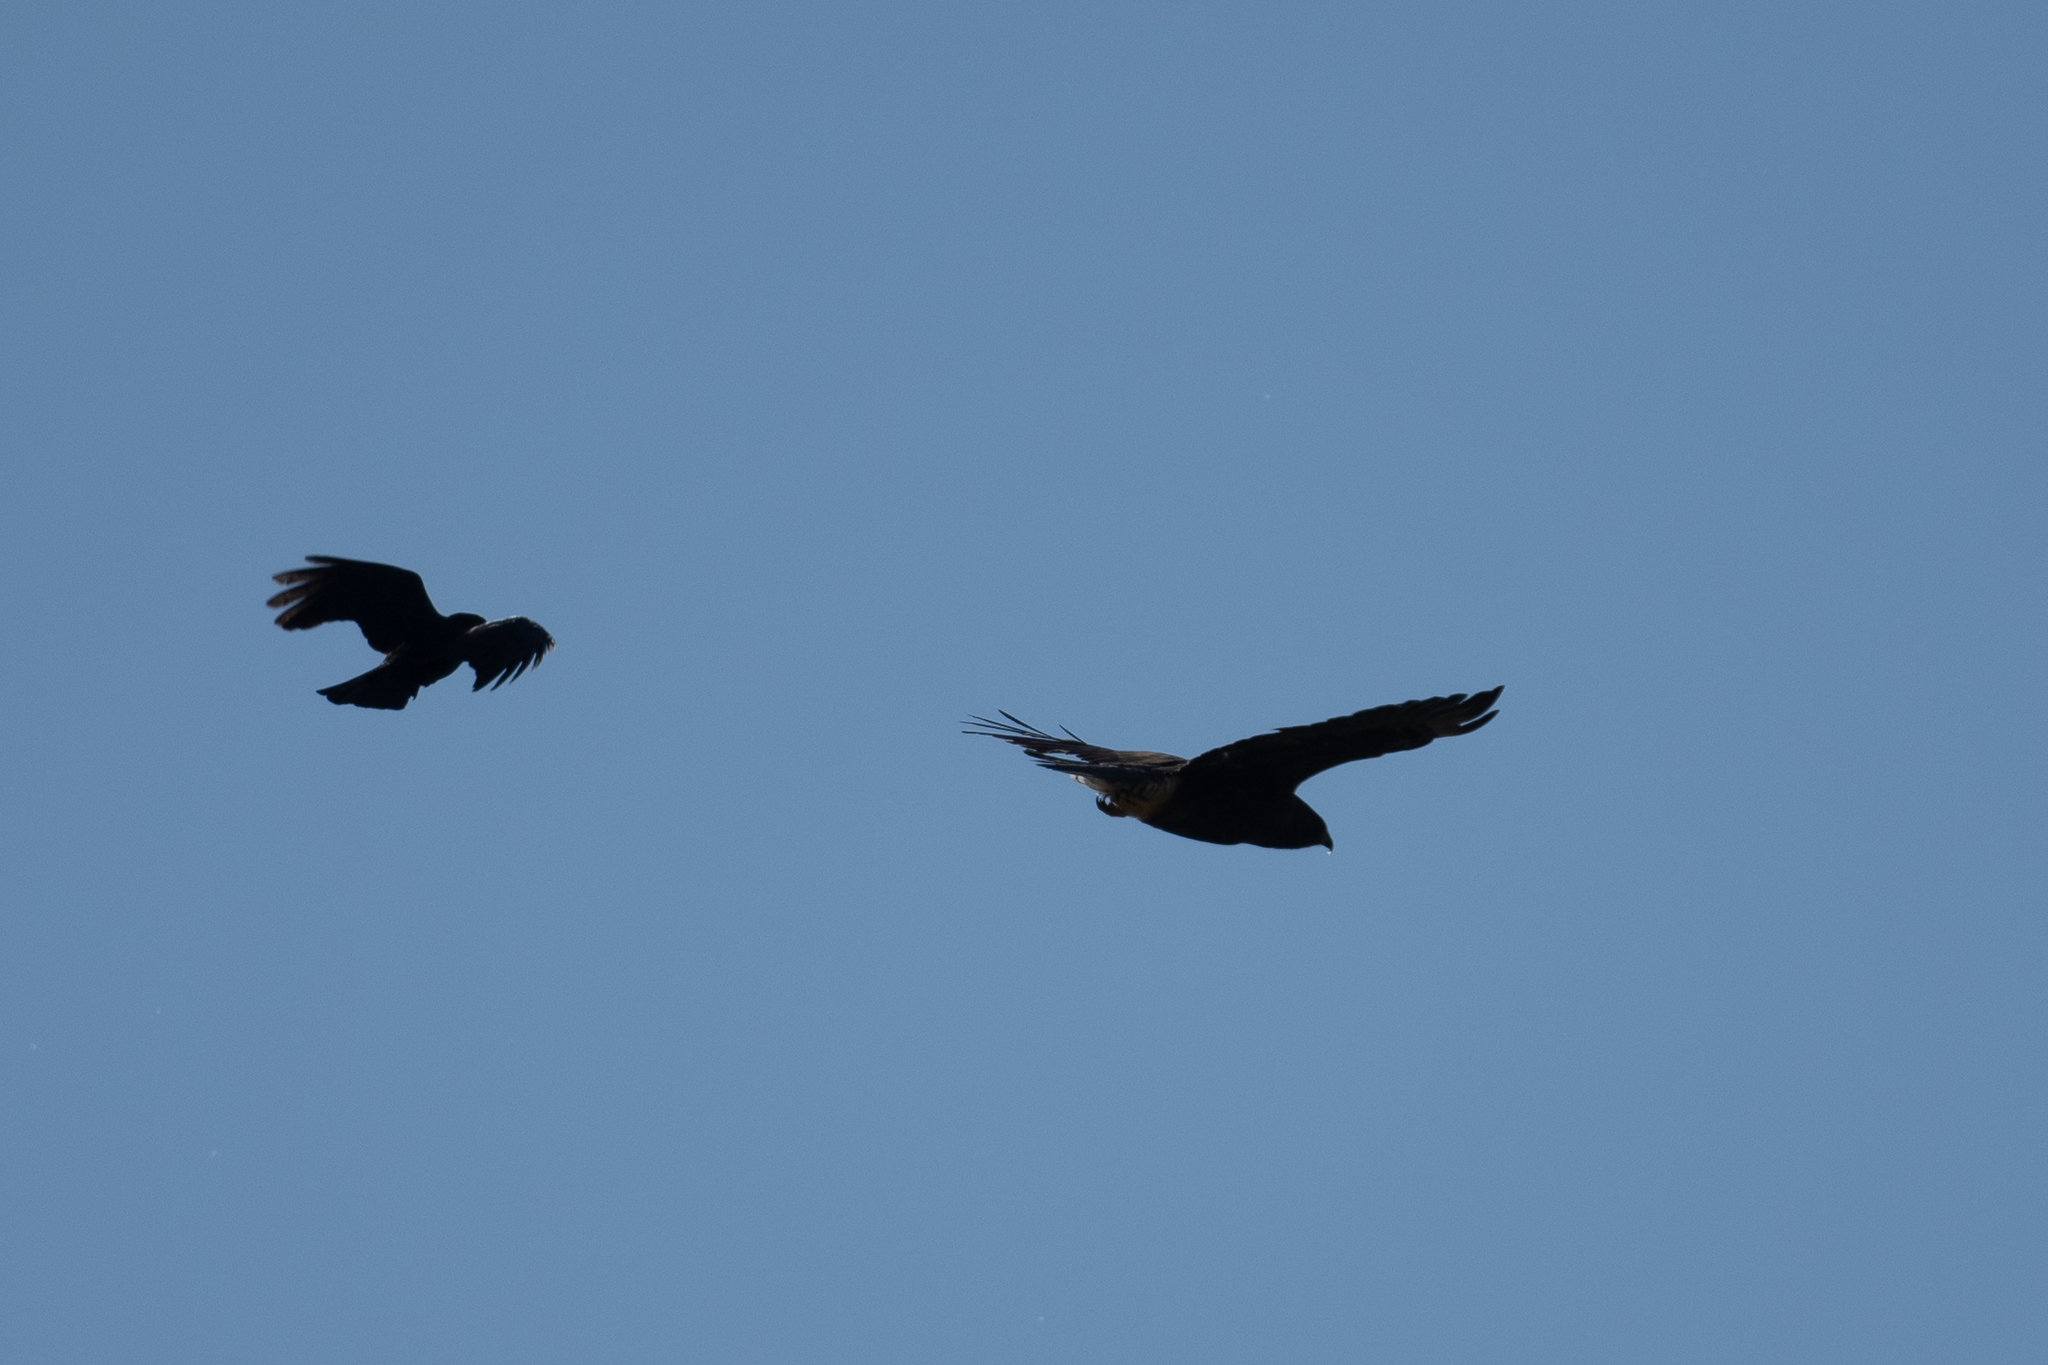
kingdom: Animalia
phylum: Chordata
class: Aves
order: Accipitriformes
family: Accipitridae
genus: Buteo
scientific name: Buteo swainsoni
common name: Swainson's hawk
